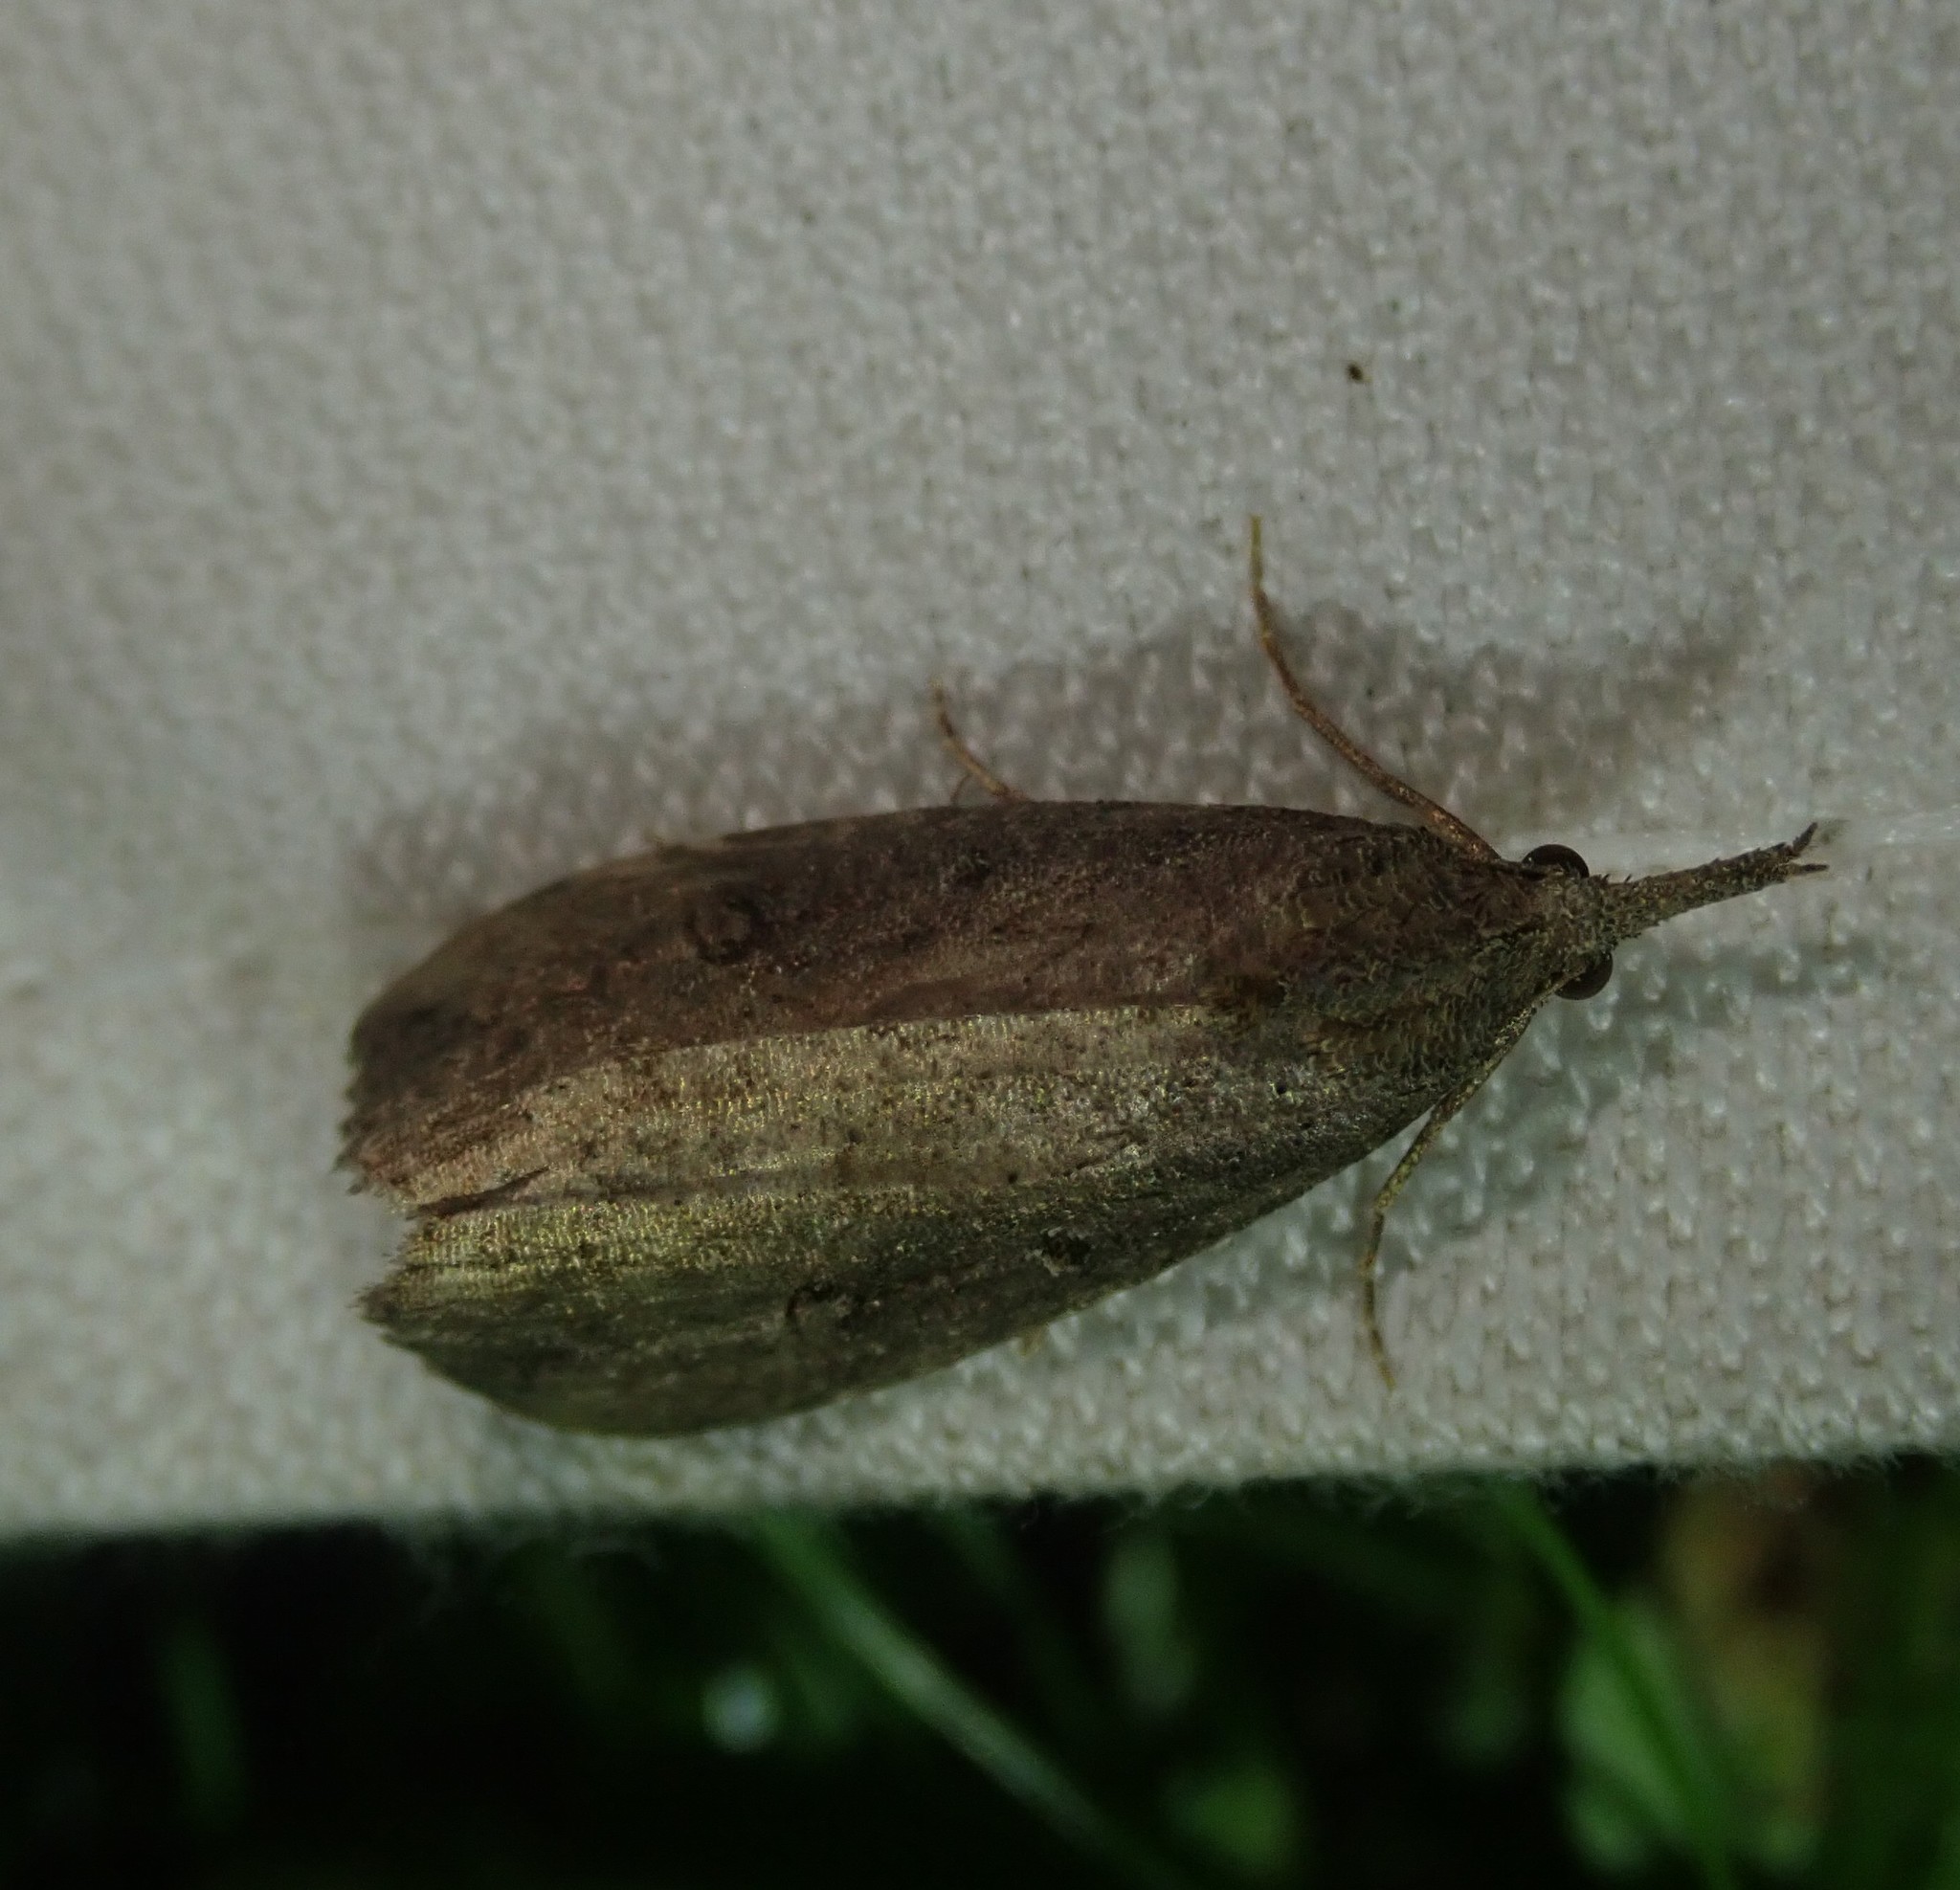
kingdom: Animalia
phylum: Arthropoda
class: Insecta
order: Lepidoptera
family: Erebidae
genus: Hypena
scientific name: Hypena rostralis
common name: Buttoned snout
